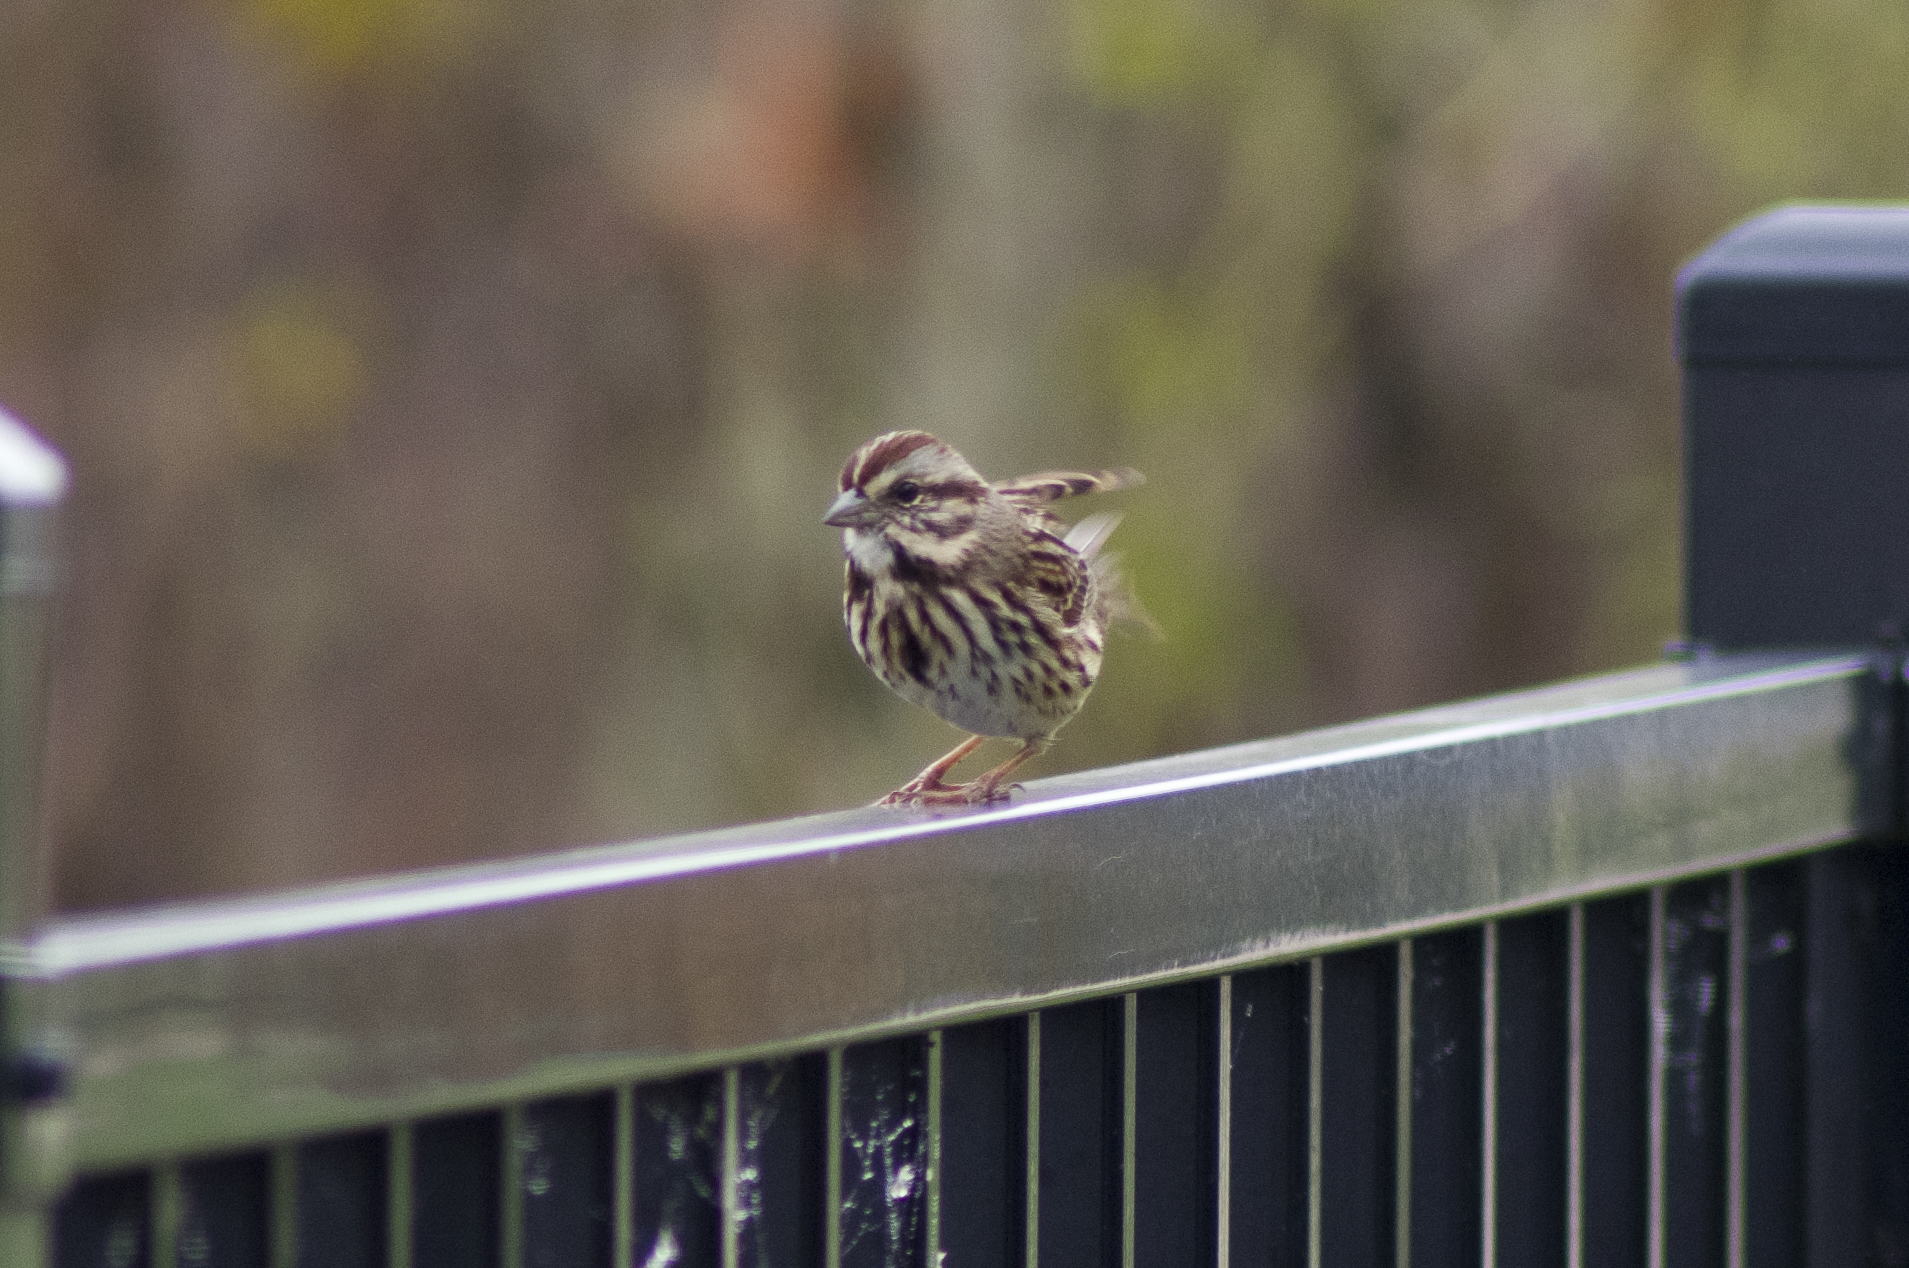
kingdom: Animalia
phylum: Chordata
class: Aves
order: Passeriformes
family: Passerellidae
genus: Melospiza
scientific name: Melospiza melodia
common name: Song sparrow
